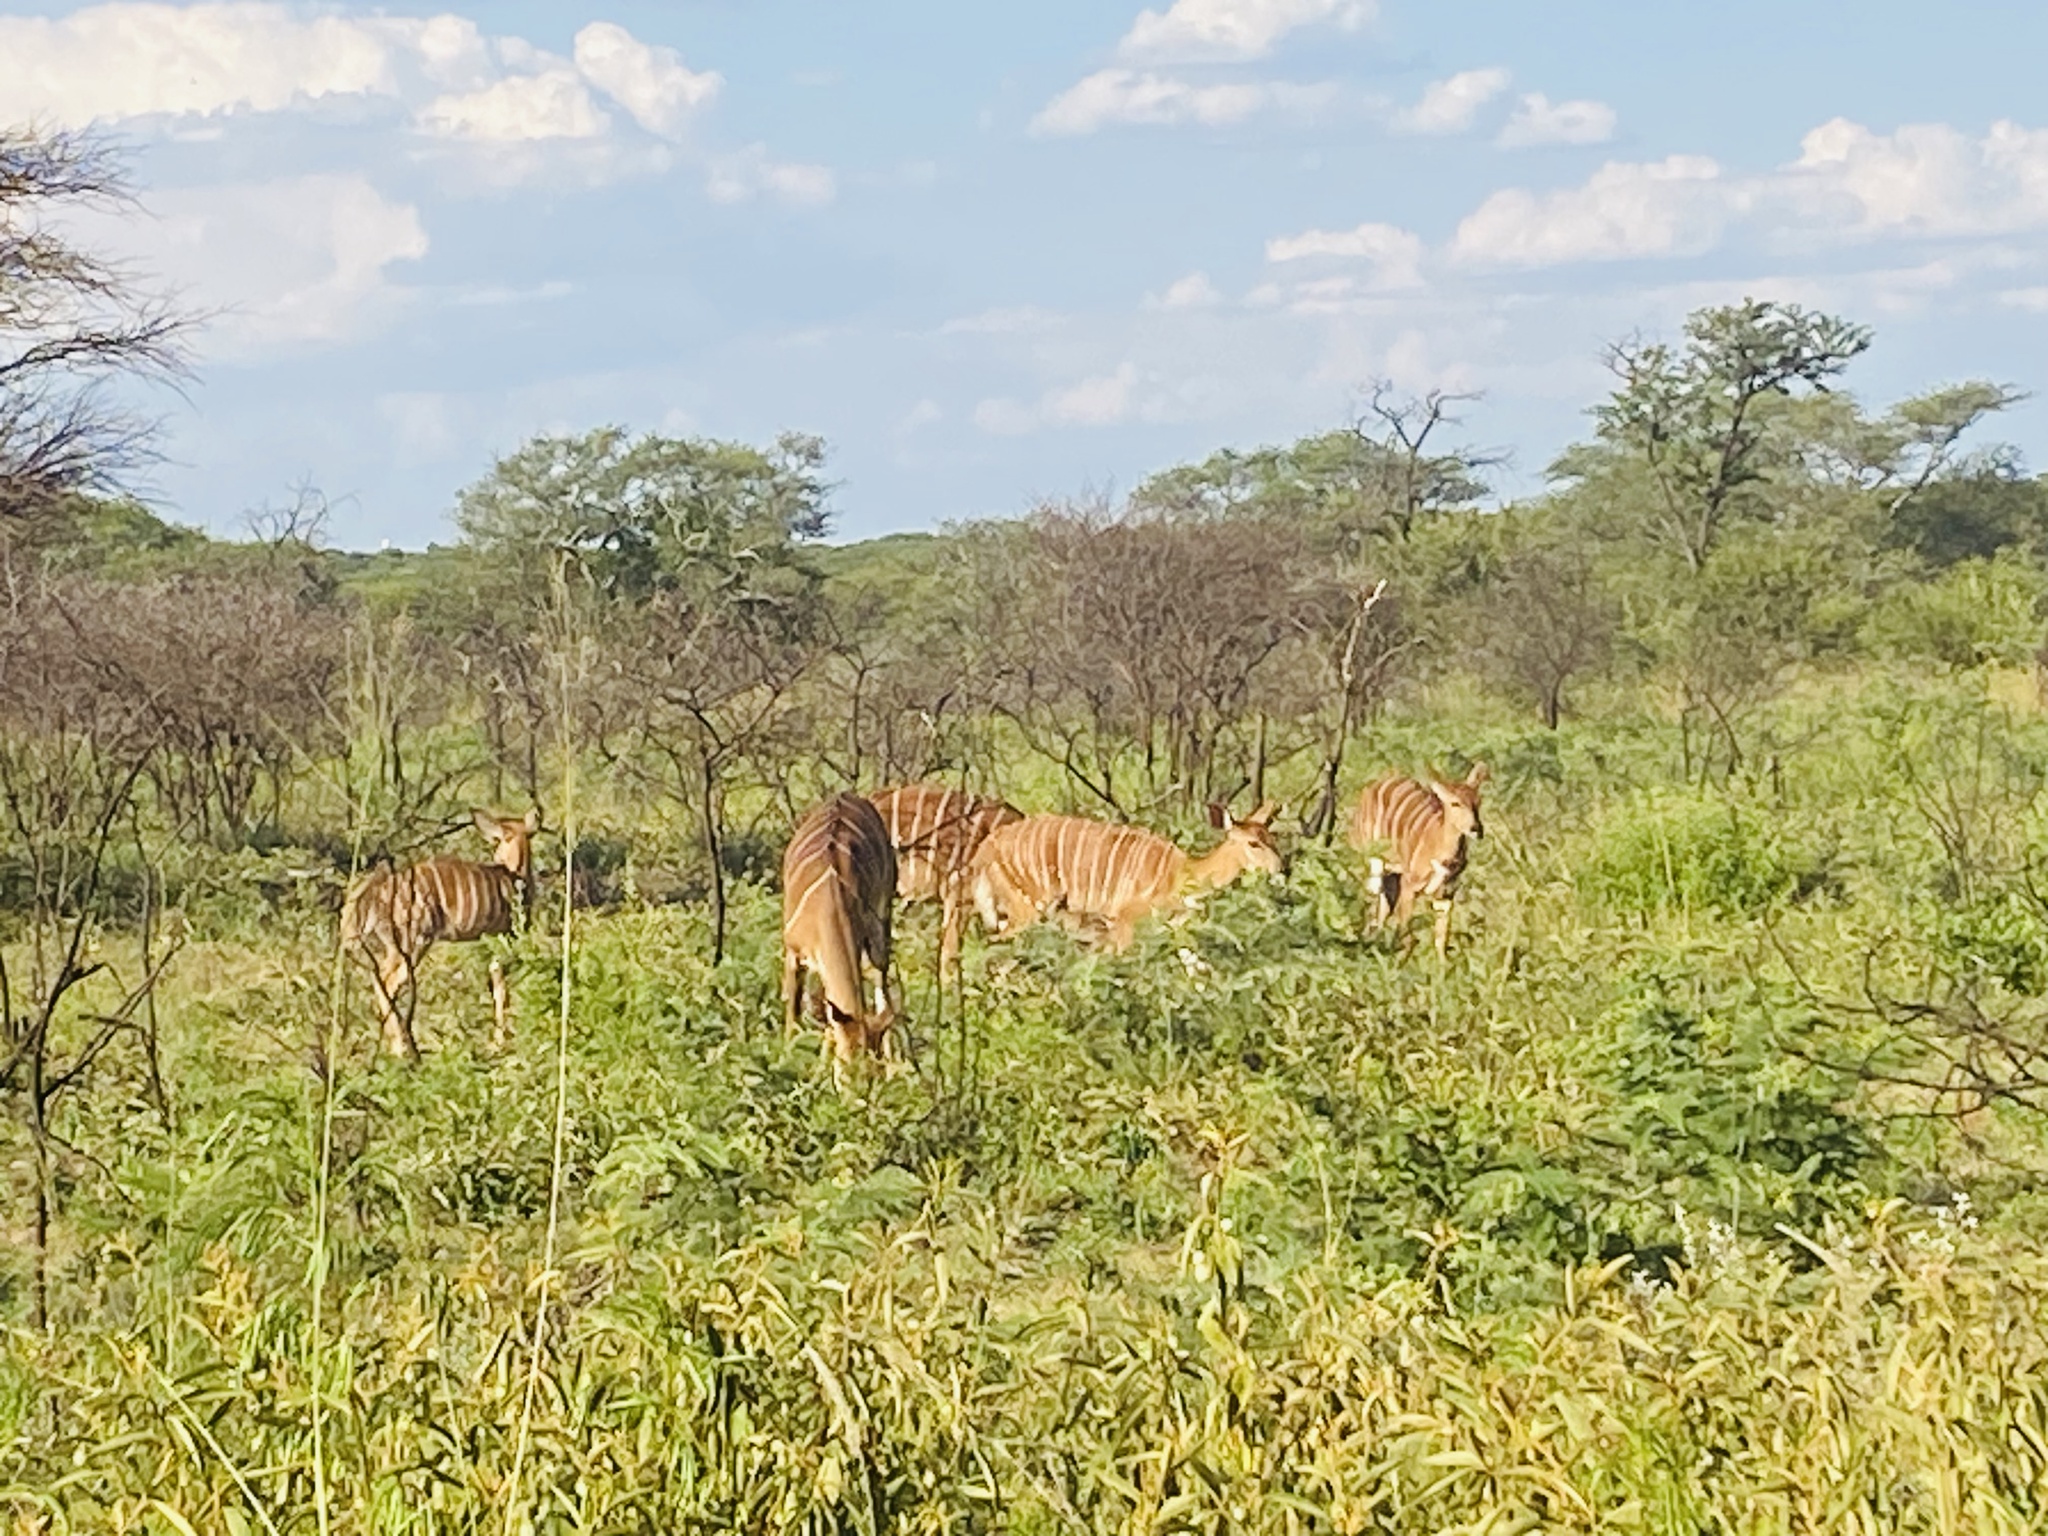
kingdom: Animalia
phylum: Chordata
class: Mammalia
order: Artiodactyla
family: Bovidae
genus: Tragelaphus
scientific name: Tragelaphus angasii
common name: Nyala
